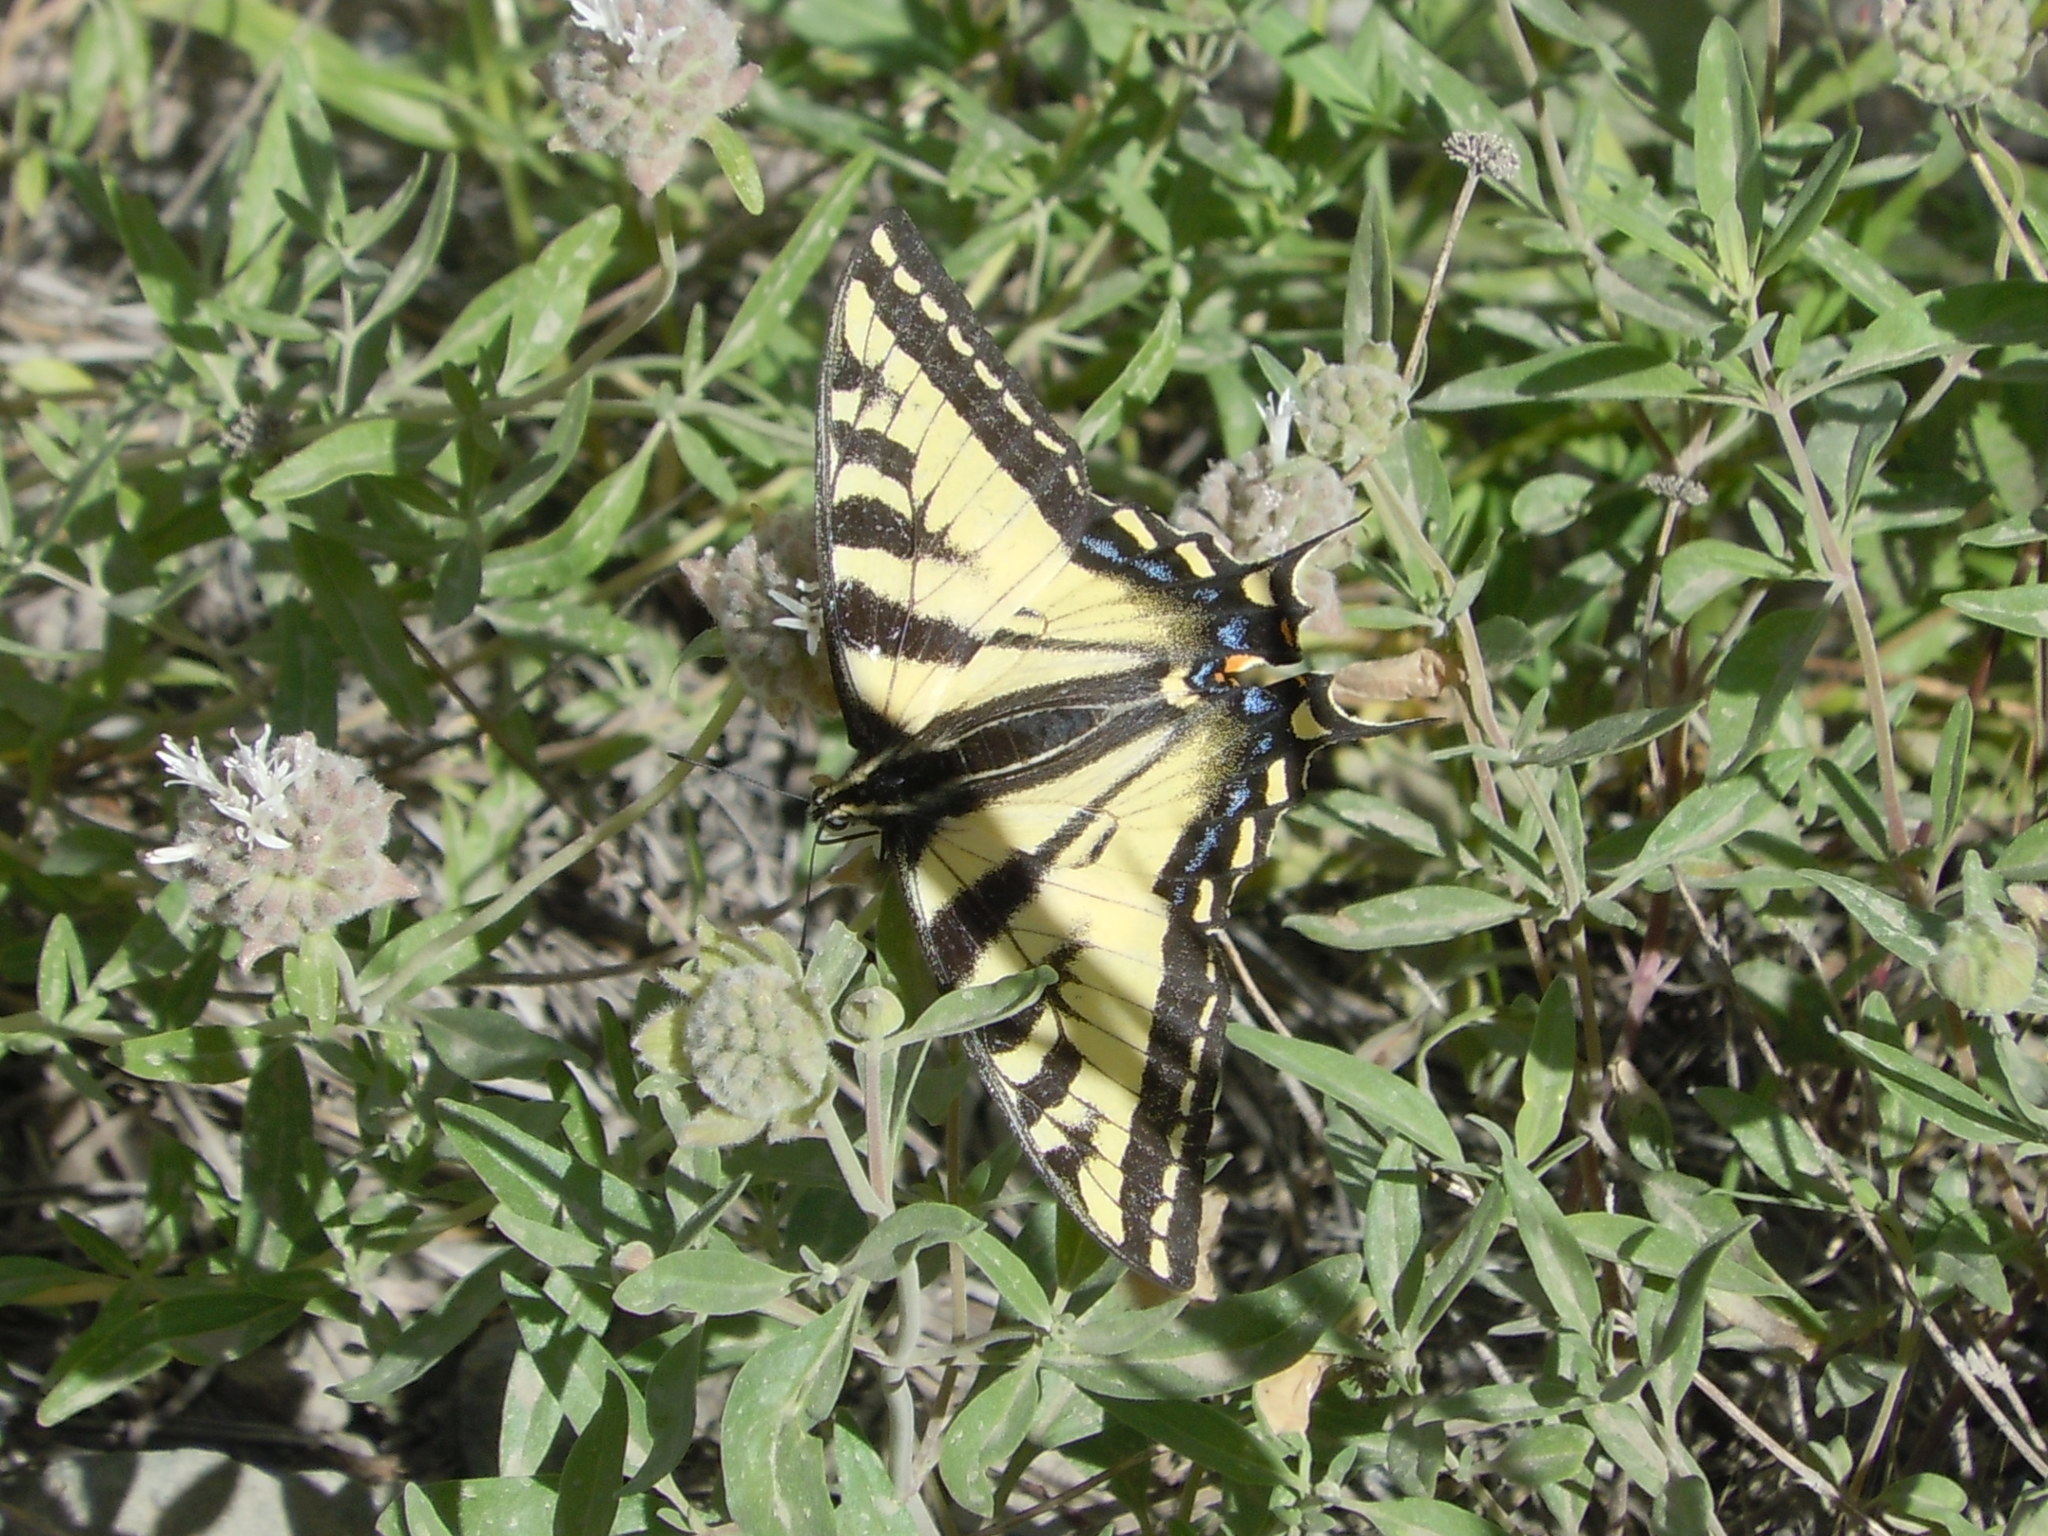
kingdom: Animalia
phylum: Arthropoda
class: Insecta
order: Lepidoptera
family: Papilionidae
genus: Papilio
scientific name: Papilio rutulus
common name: Western tiger swallowtail
